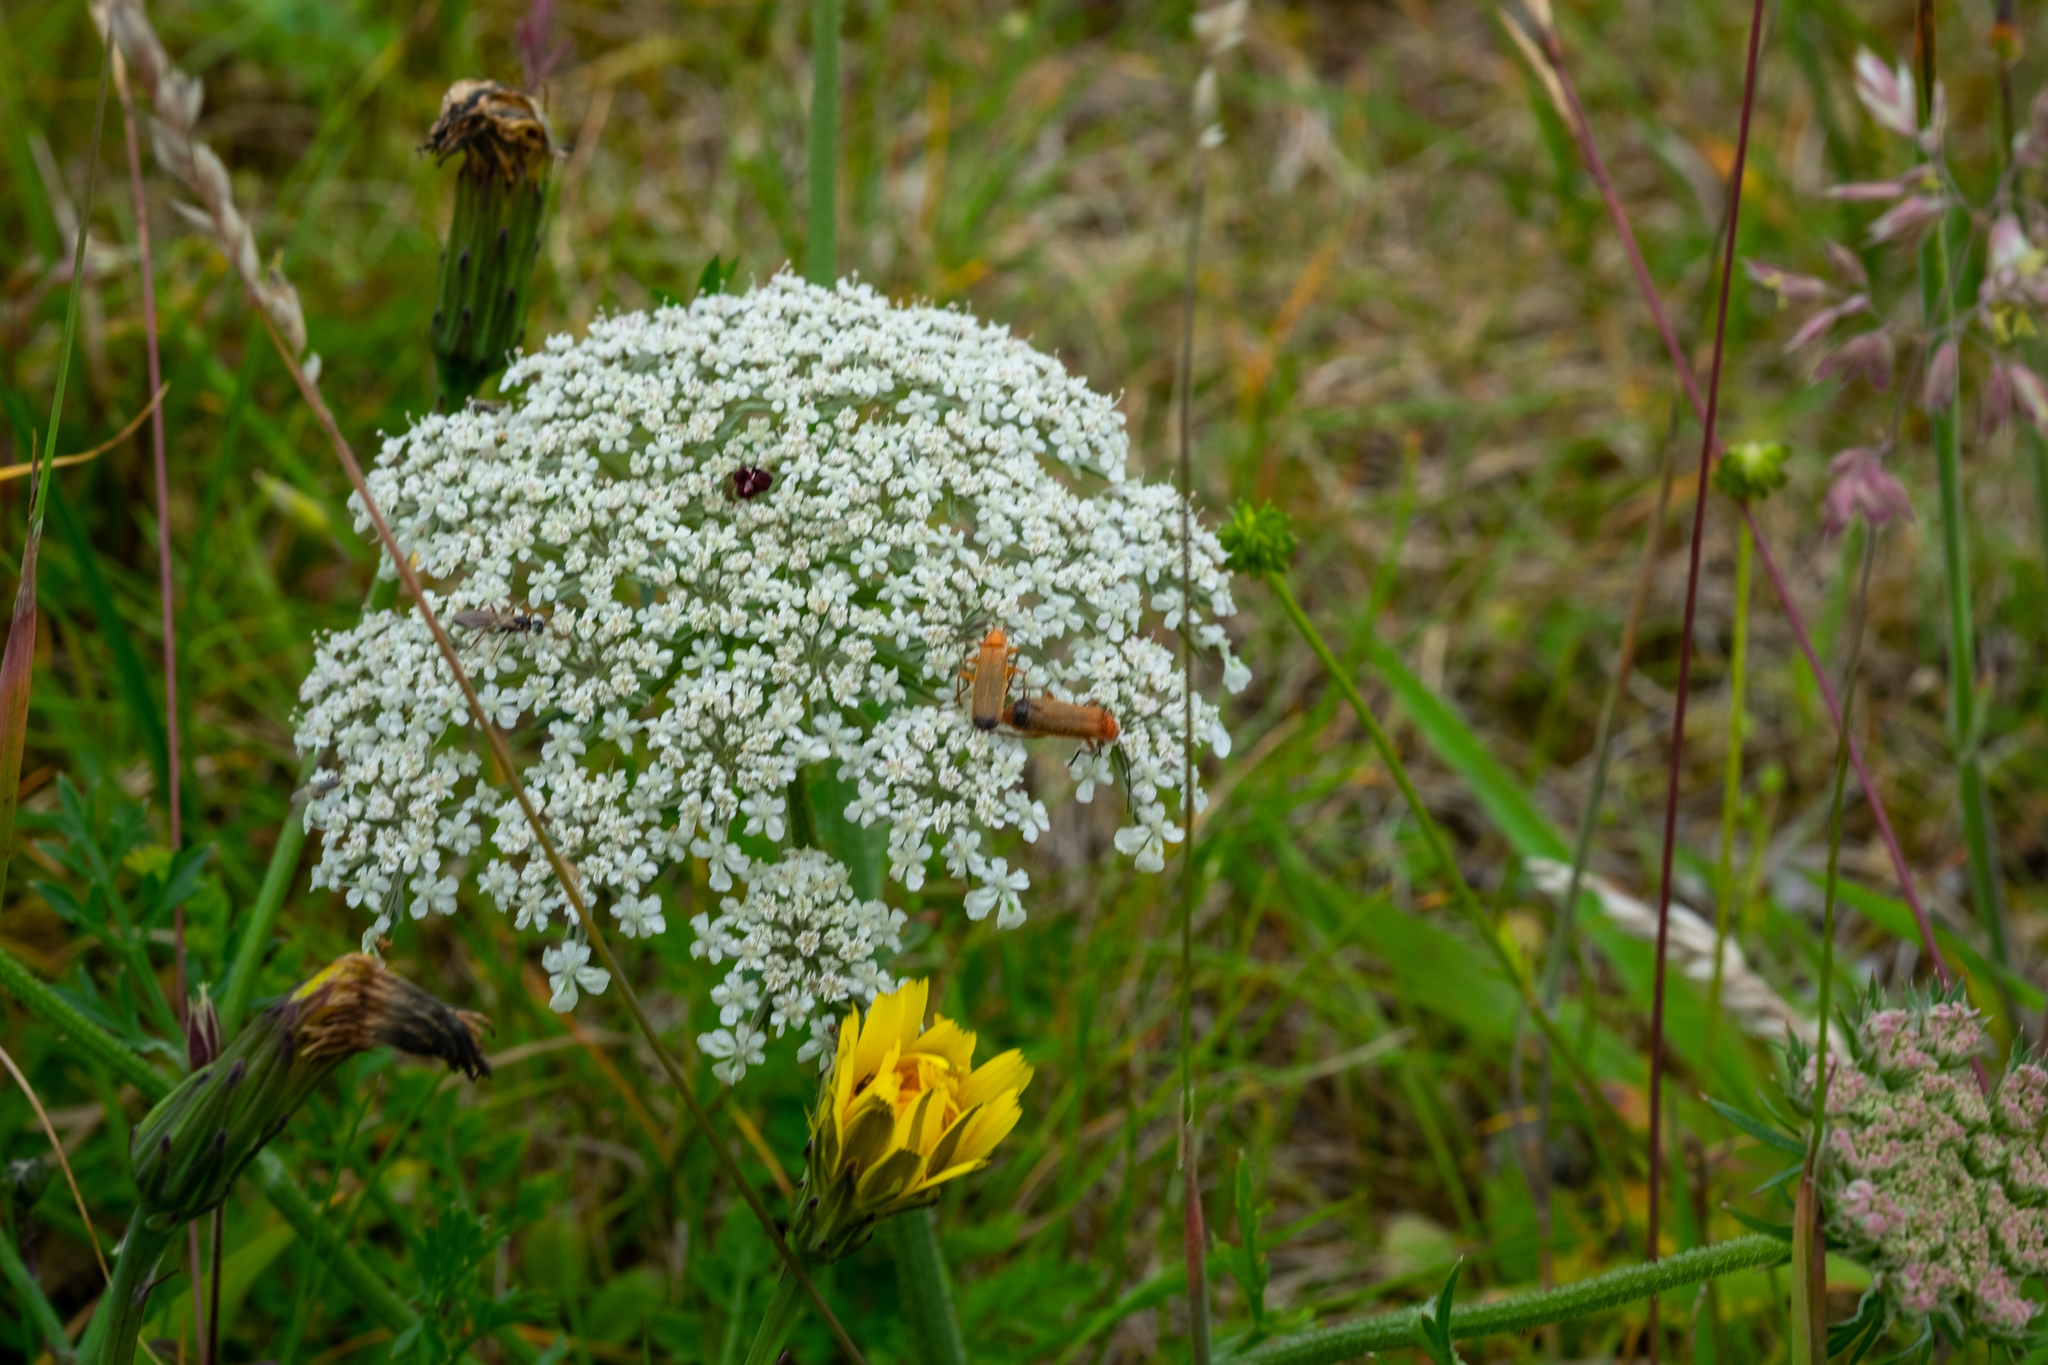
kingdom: Plantae
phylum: Tracheophyta
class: Magnoliopsida
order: Apiales
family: Apiaceae
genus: Daucus
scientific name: Daucus carota
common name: Wild carrot
